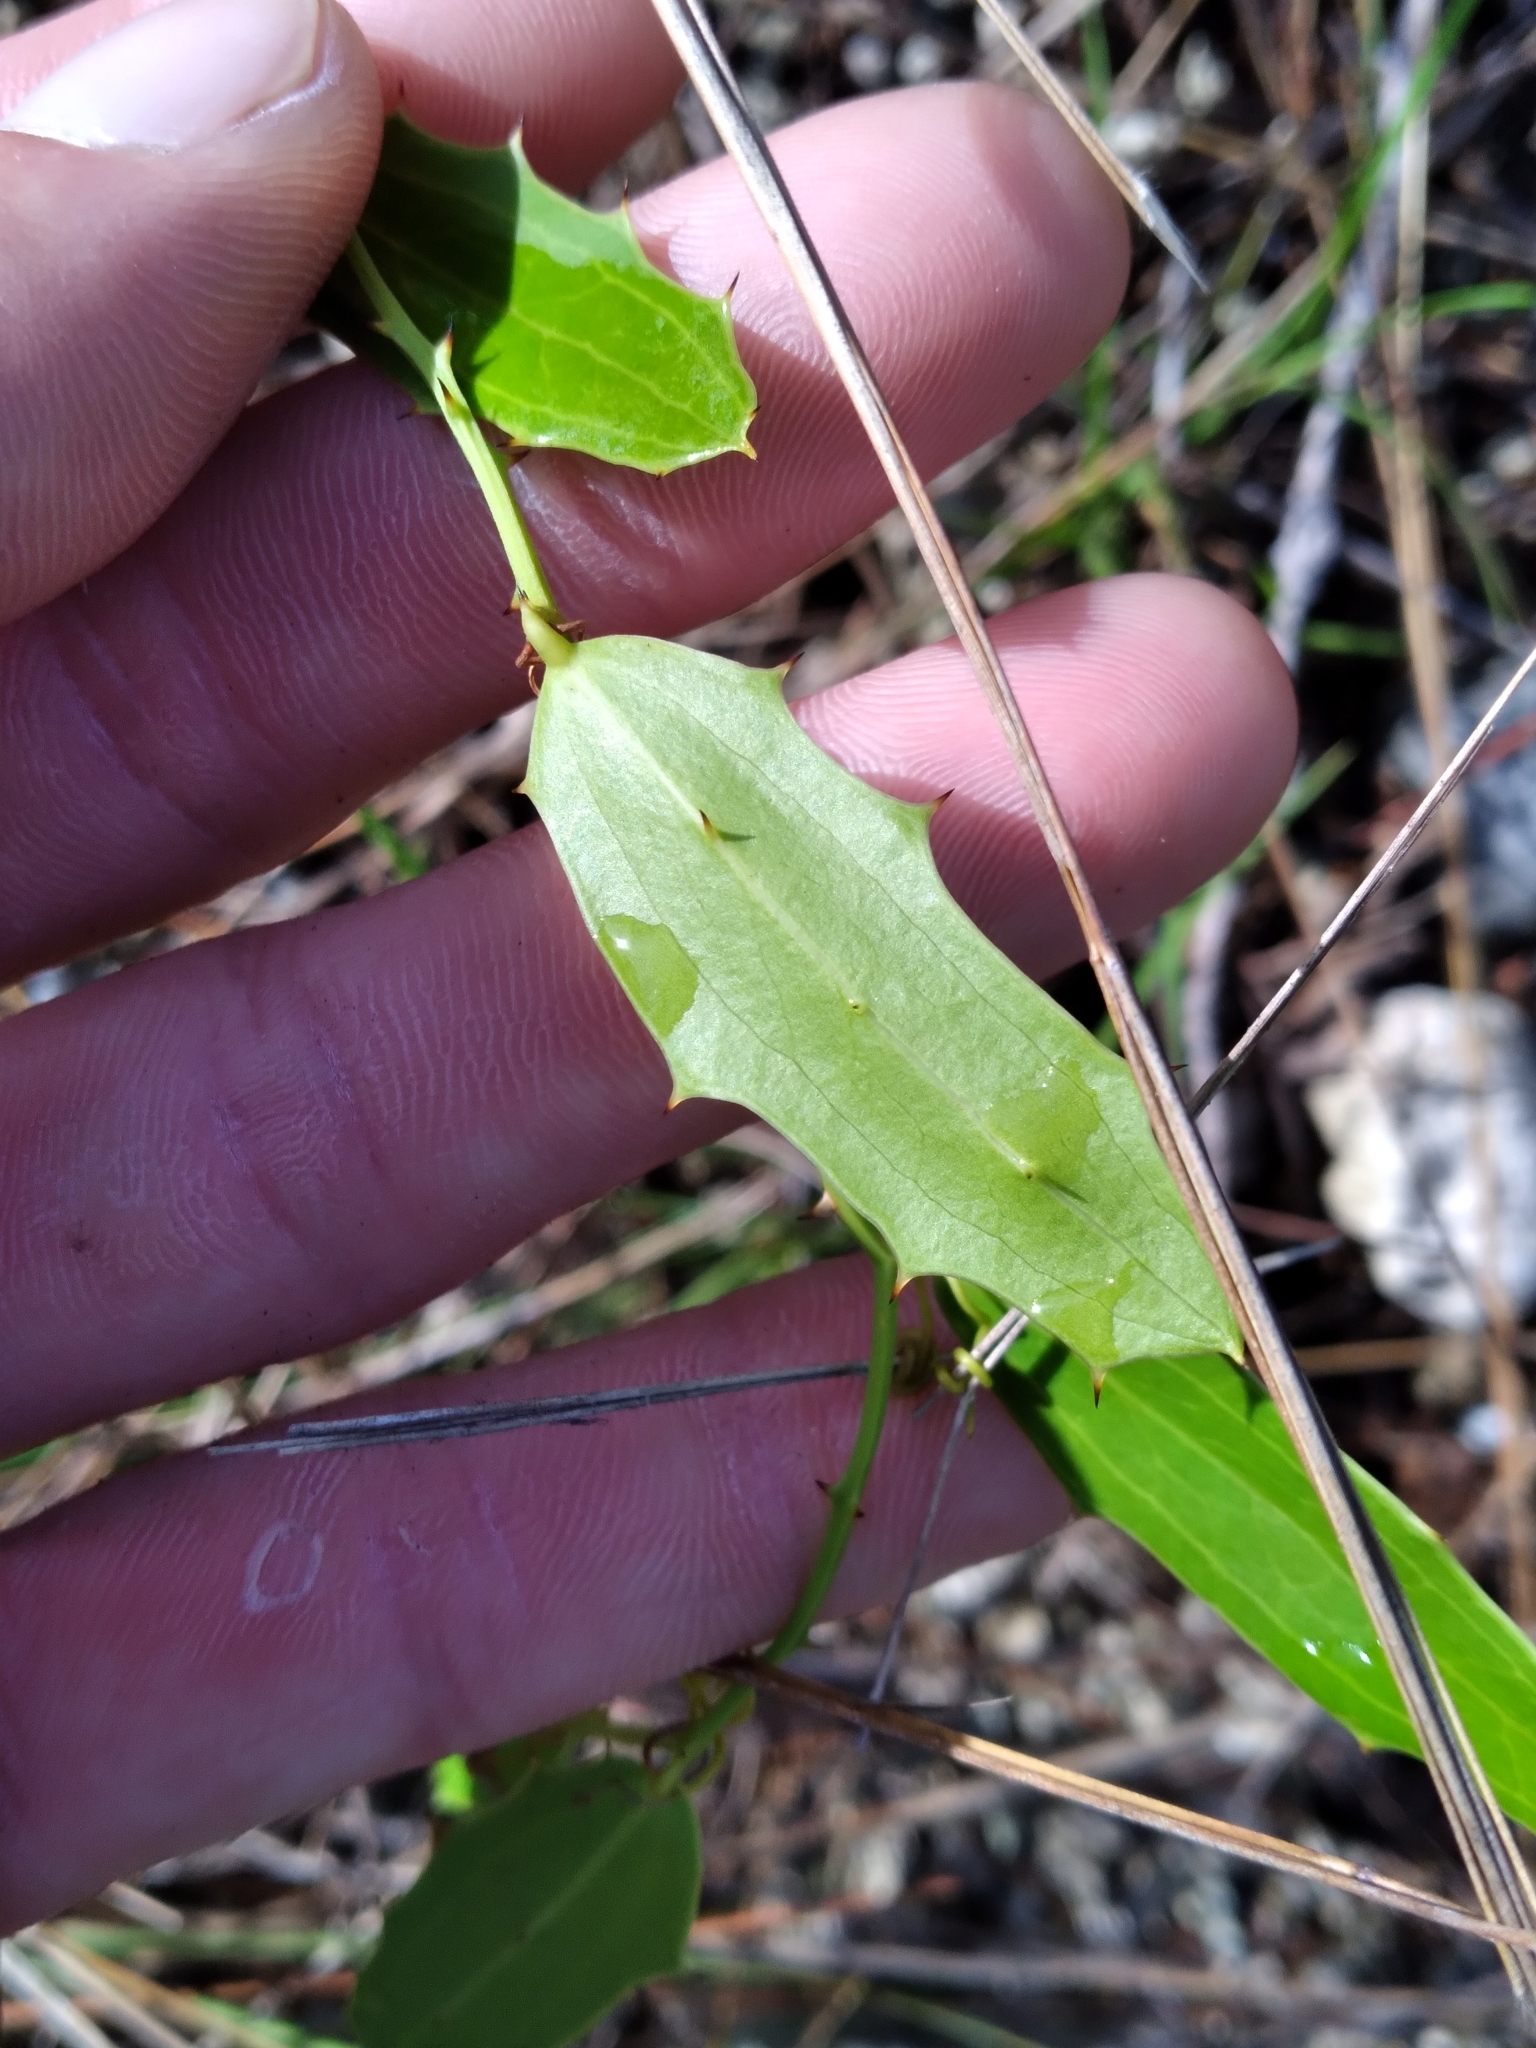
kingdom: Plantae
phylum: Tracheophyta
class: Liliopsida
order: Liliales
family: Smilacaceae
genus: Smilax
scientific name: Smilax havanensis
